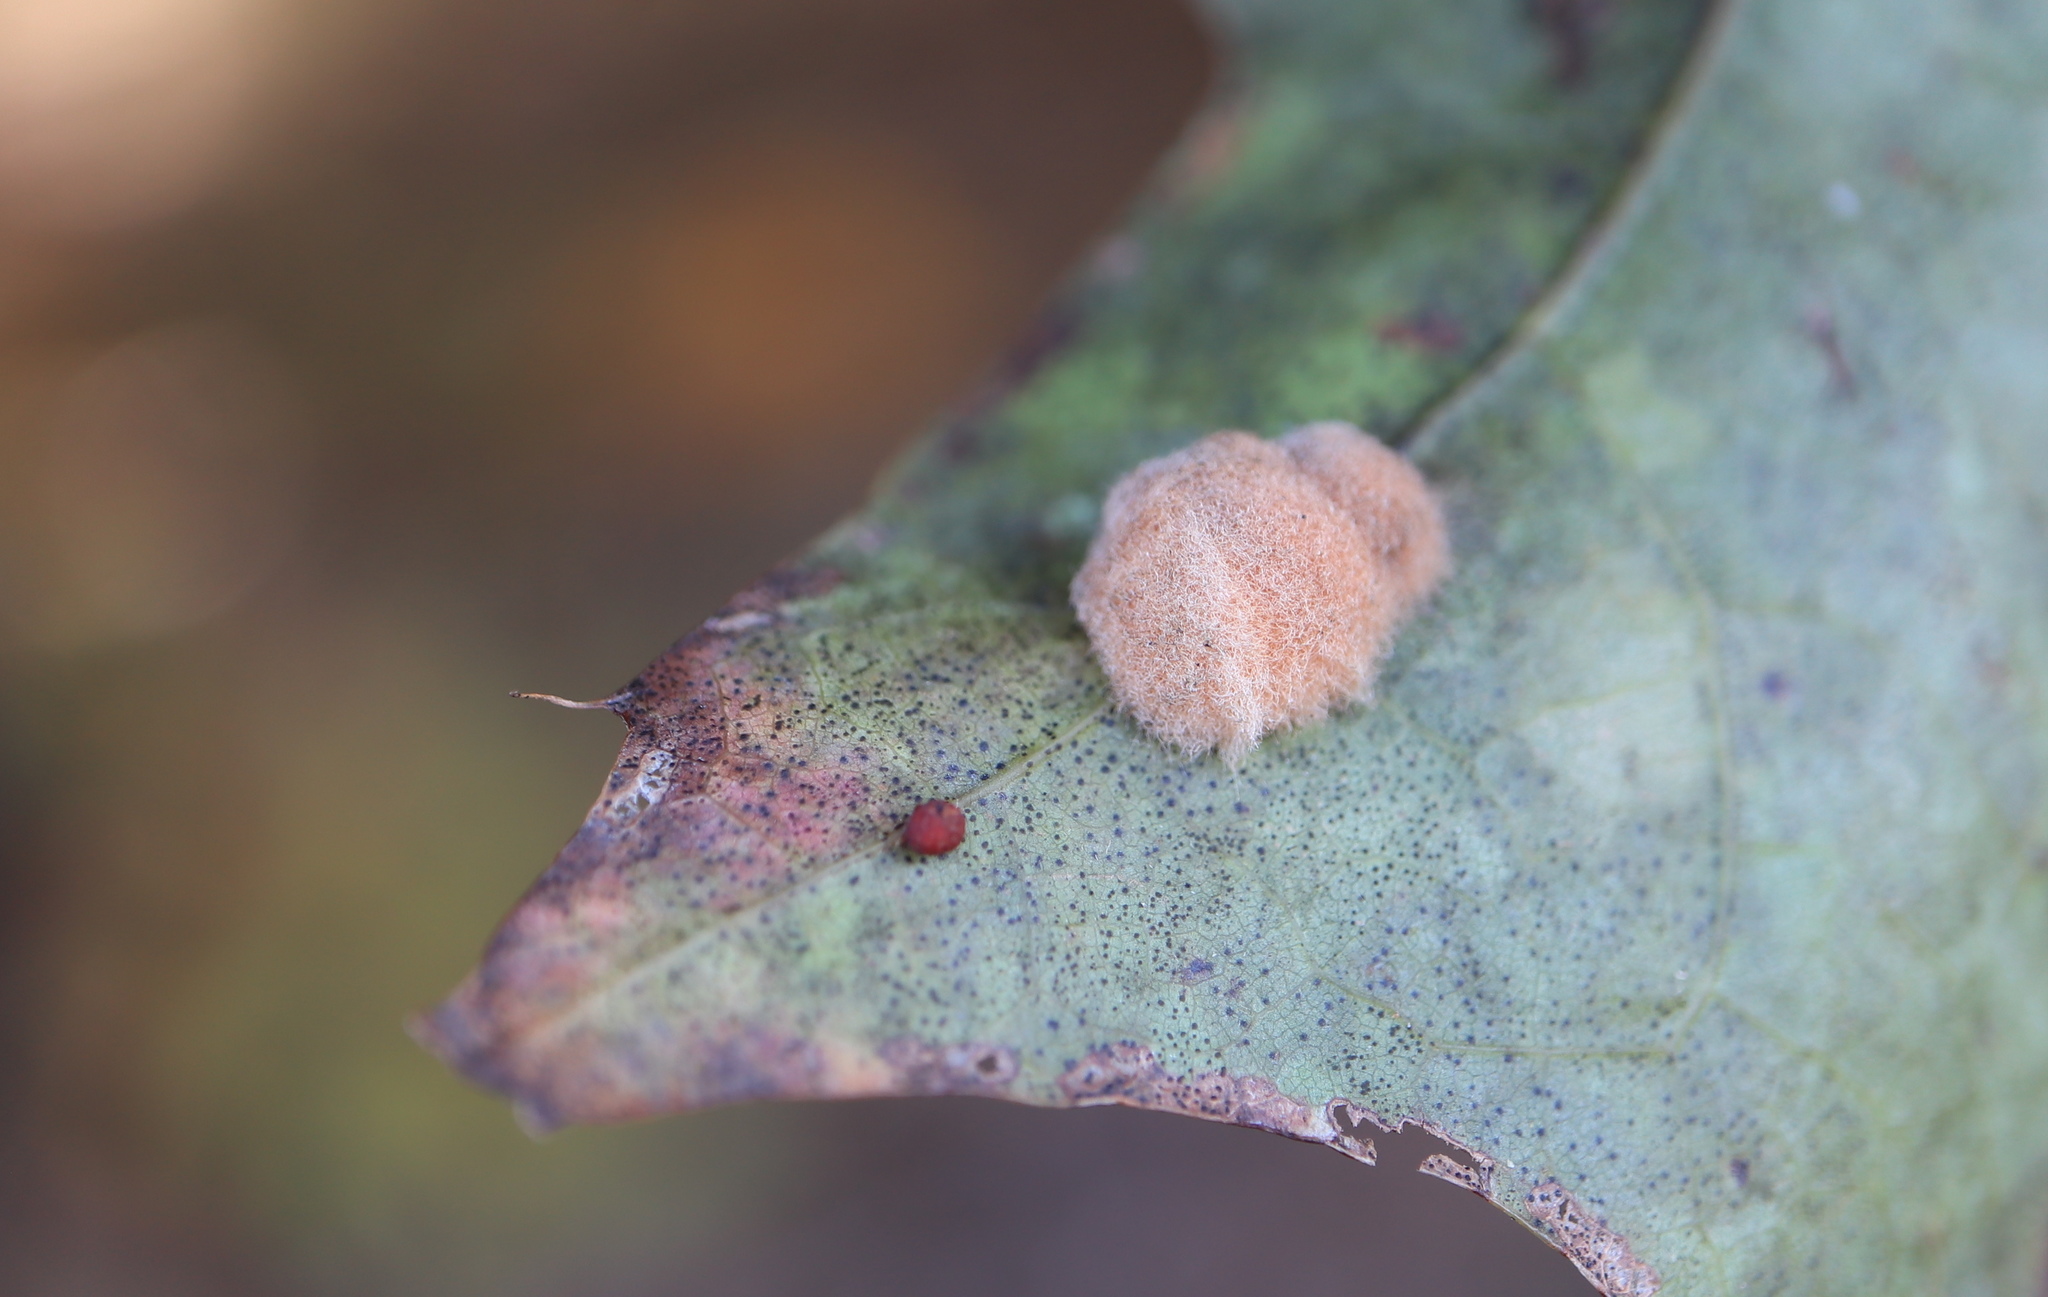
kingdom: Animalia
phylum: Arthropoda
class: Insecta
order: Hymenoptera
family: Cynipidae
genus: Callirhytis
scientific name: Callirhytis
